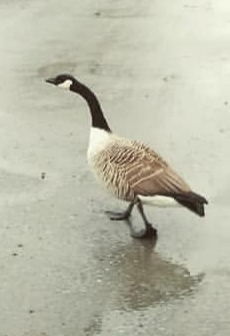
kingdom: Animalia
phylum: Chordata
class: Aves
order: Anseriformes
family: Anatidae
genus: Branta
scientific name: Branta canadensis
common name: Canada goose
